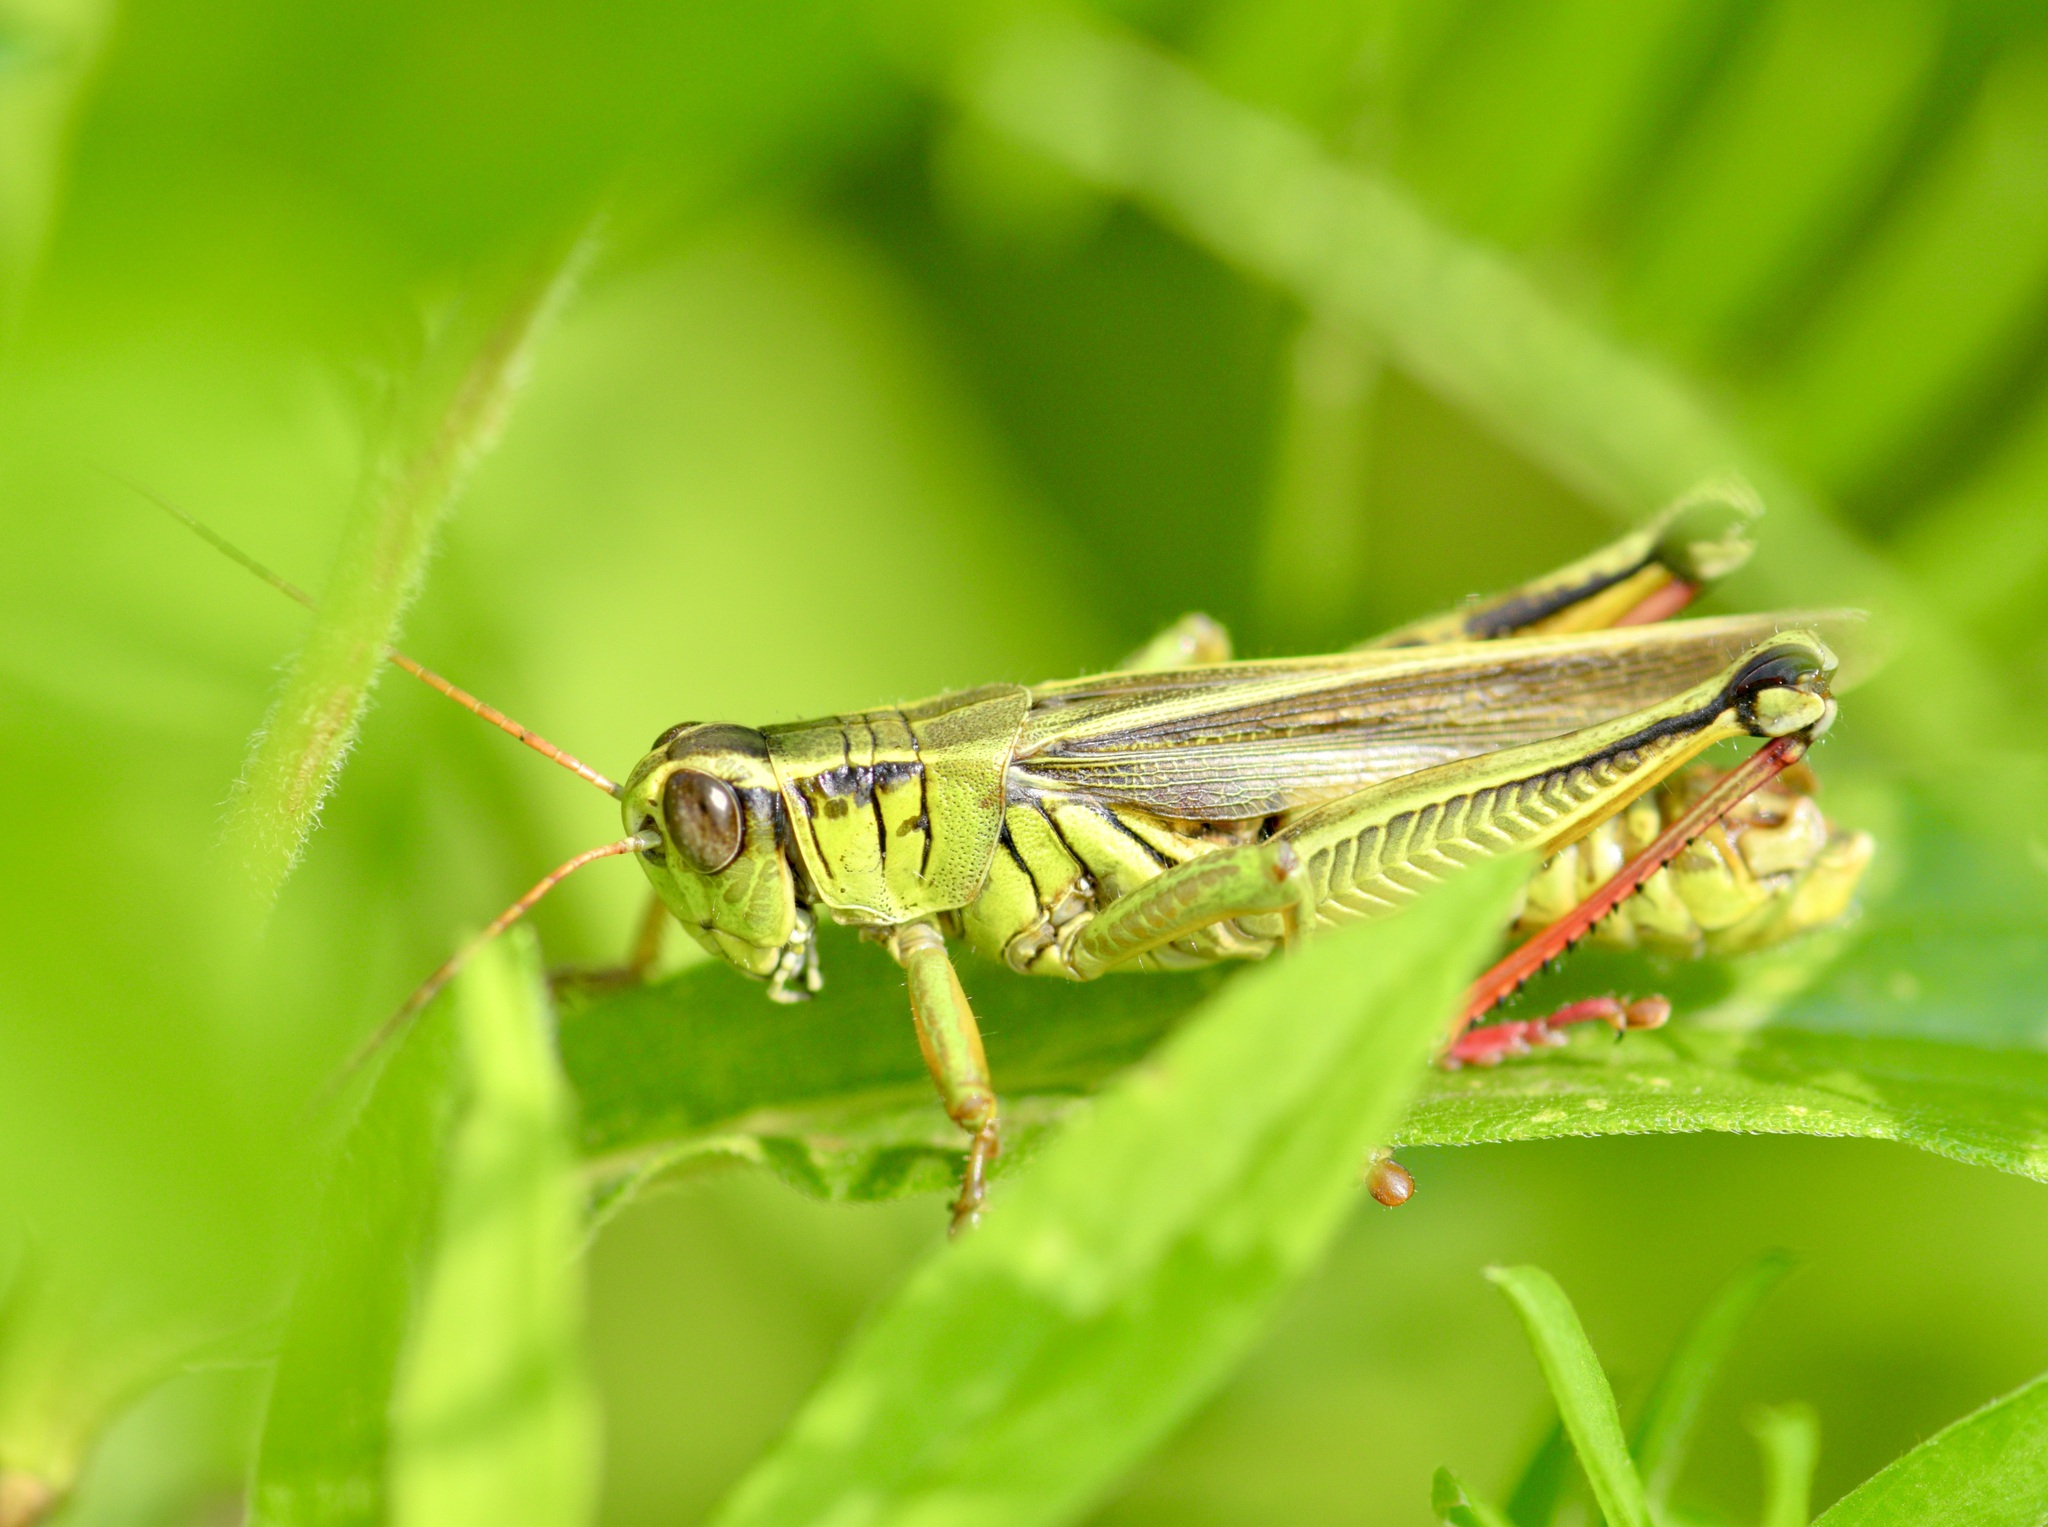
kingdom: Animalia
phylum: Arthropoda
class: Insecta
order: Orthoptera
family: Acrididae
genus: Melanoplus
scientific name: Melanoplus bivittatus
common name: Two-striped grasshopper
